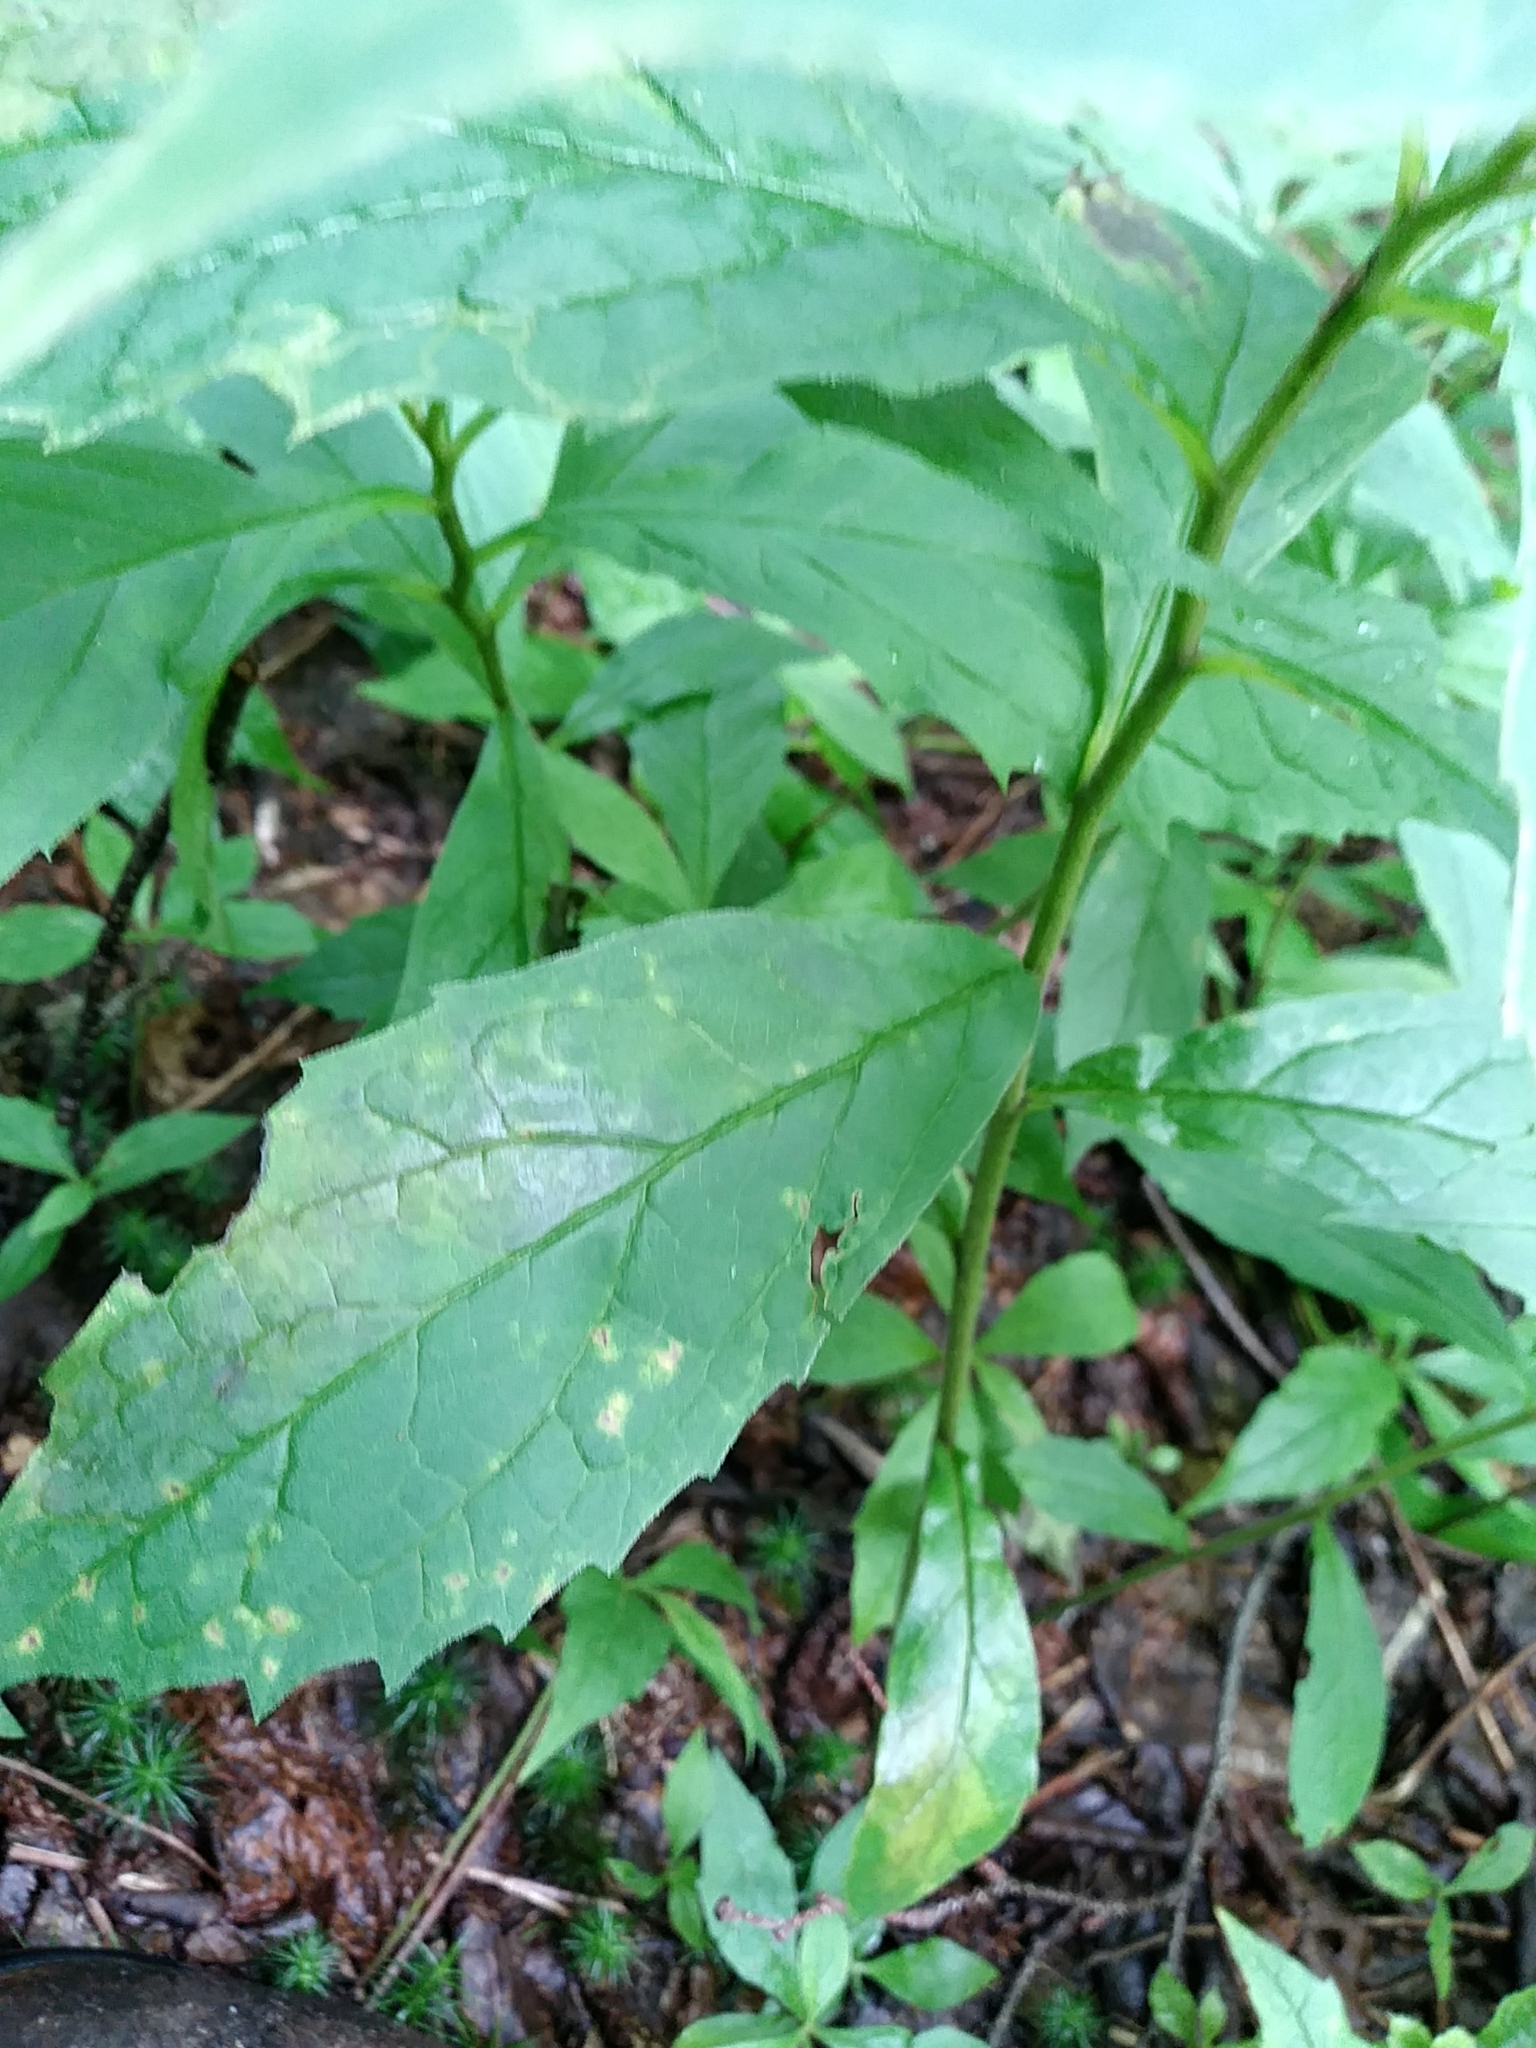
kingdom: Plantae
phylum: Tracheophyta
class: Magnoliopsida
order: Asterales
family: Asteraceae
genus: Oclemena
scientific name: Oclemena acuminata
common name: Mountain aster
